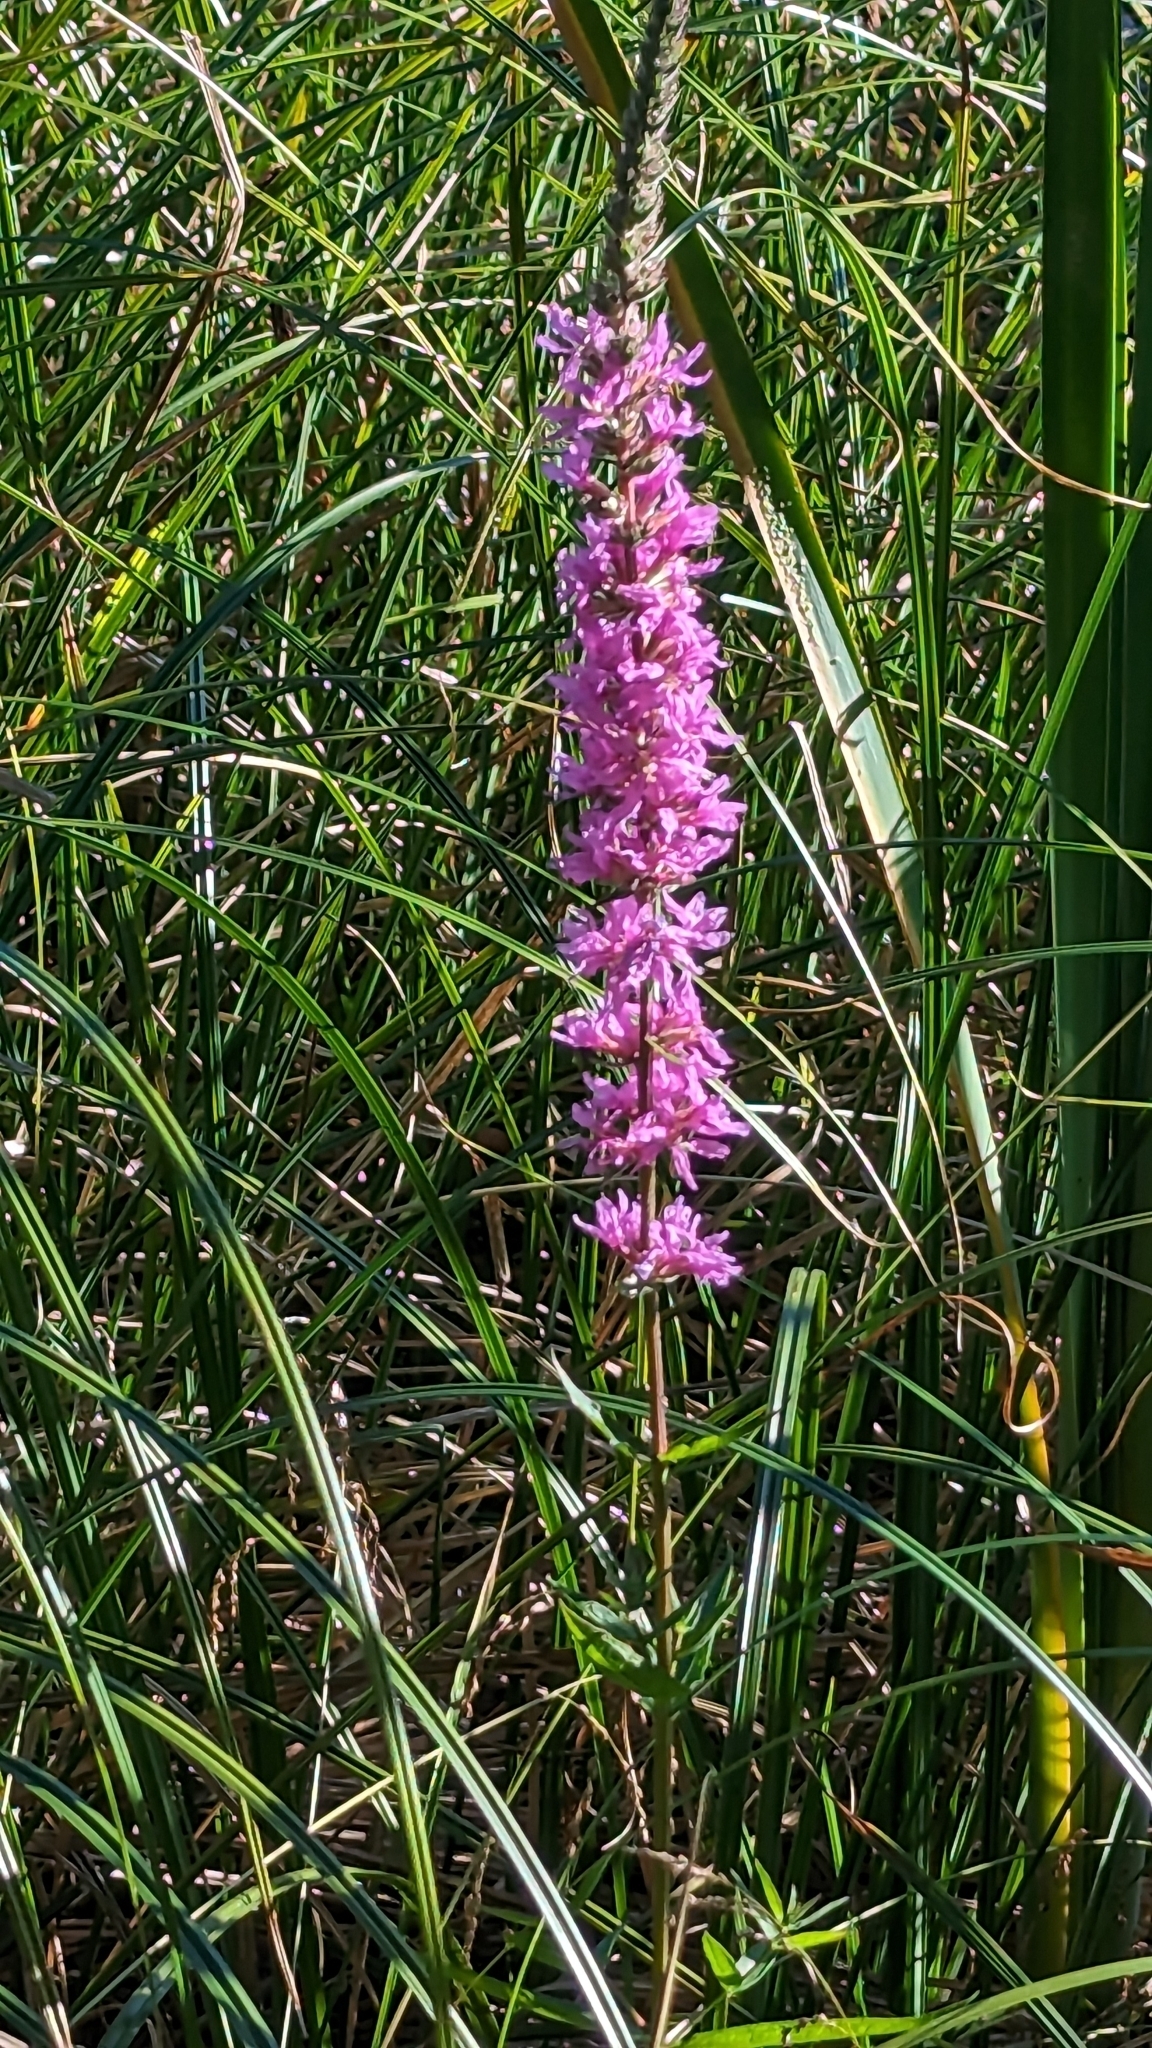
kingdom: Plantae
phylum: Tracheophyta
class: Magnoliopsida
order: Myrtales
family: Lythraceae
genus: Lythrum
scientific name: Lythrum salicaria
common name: Purple loosestrife
